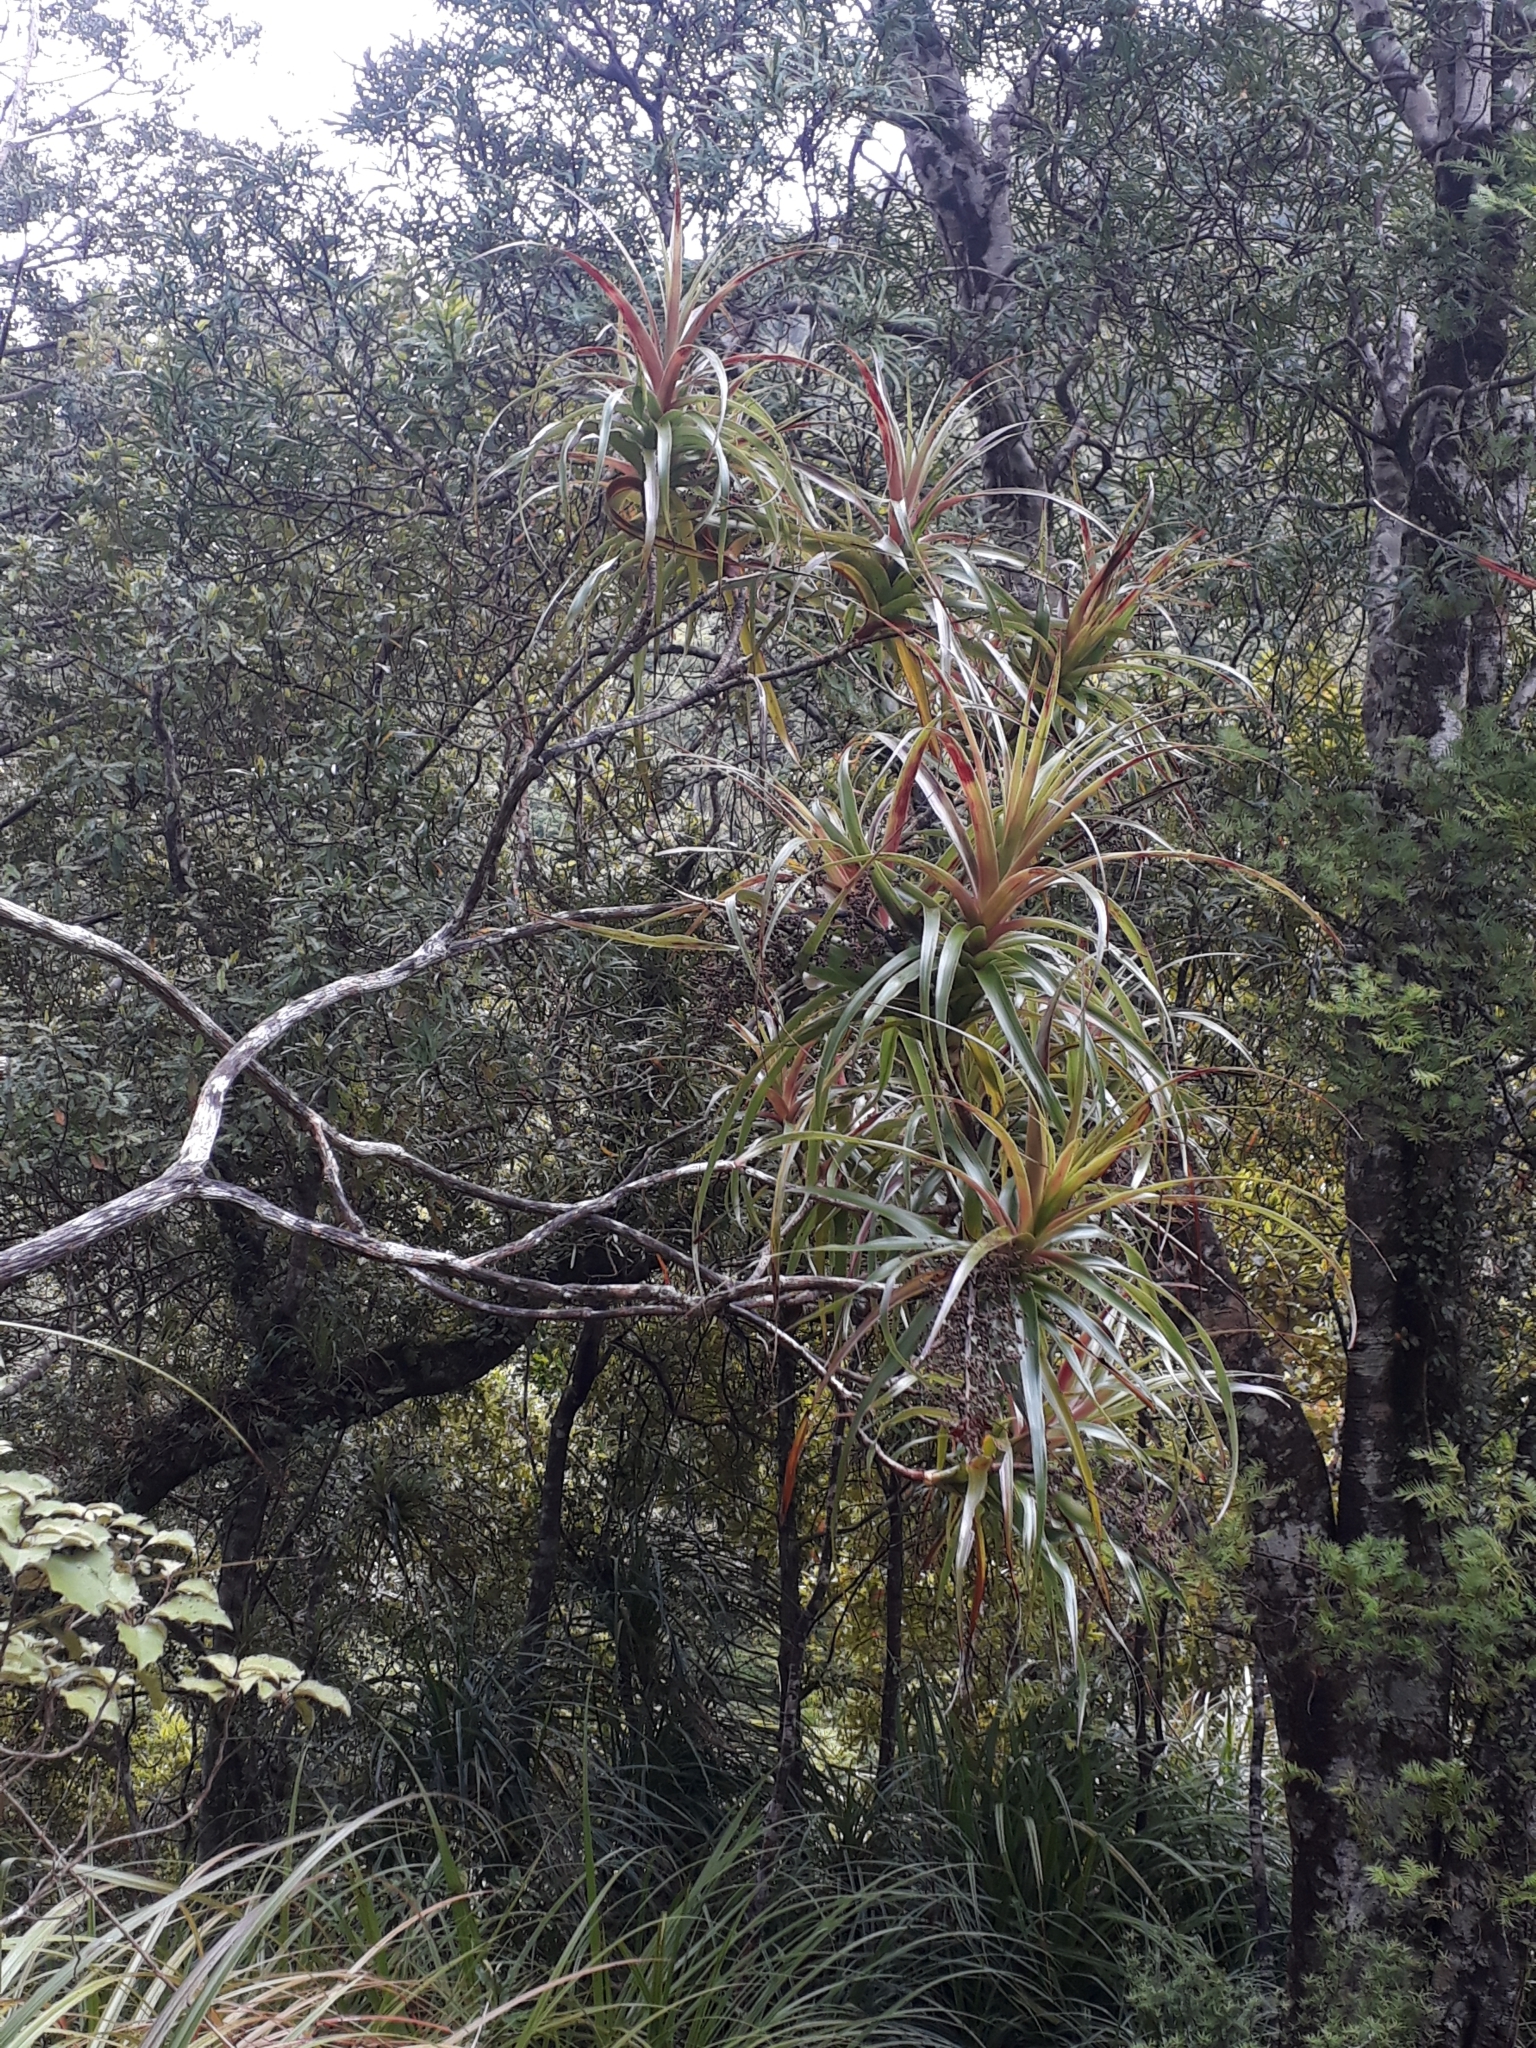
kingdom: Plantae
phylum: Tracheophyta
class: Magnoliopsida
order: Ericales
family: Ericaceae
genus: Dracophyllum
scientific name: Dracophyllum latifolium
